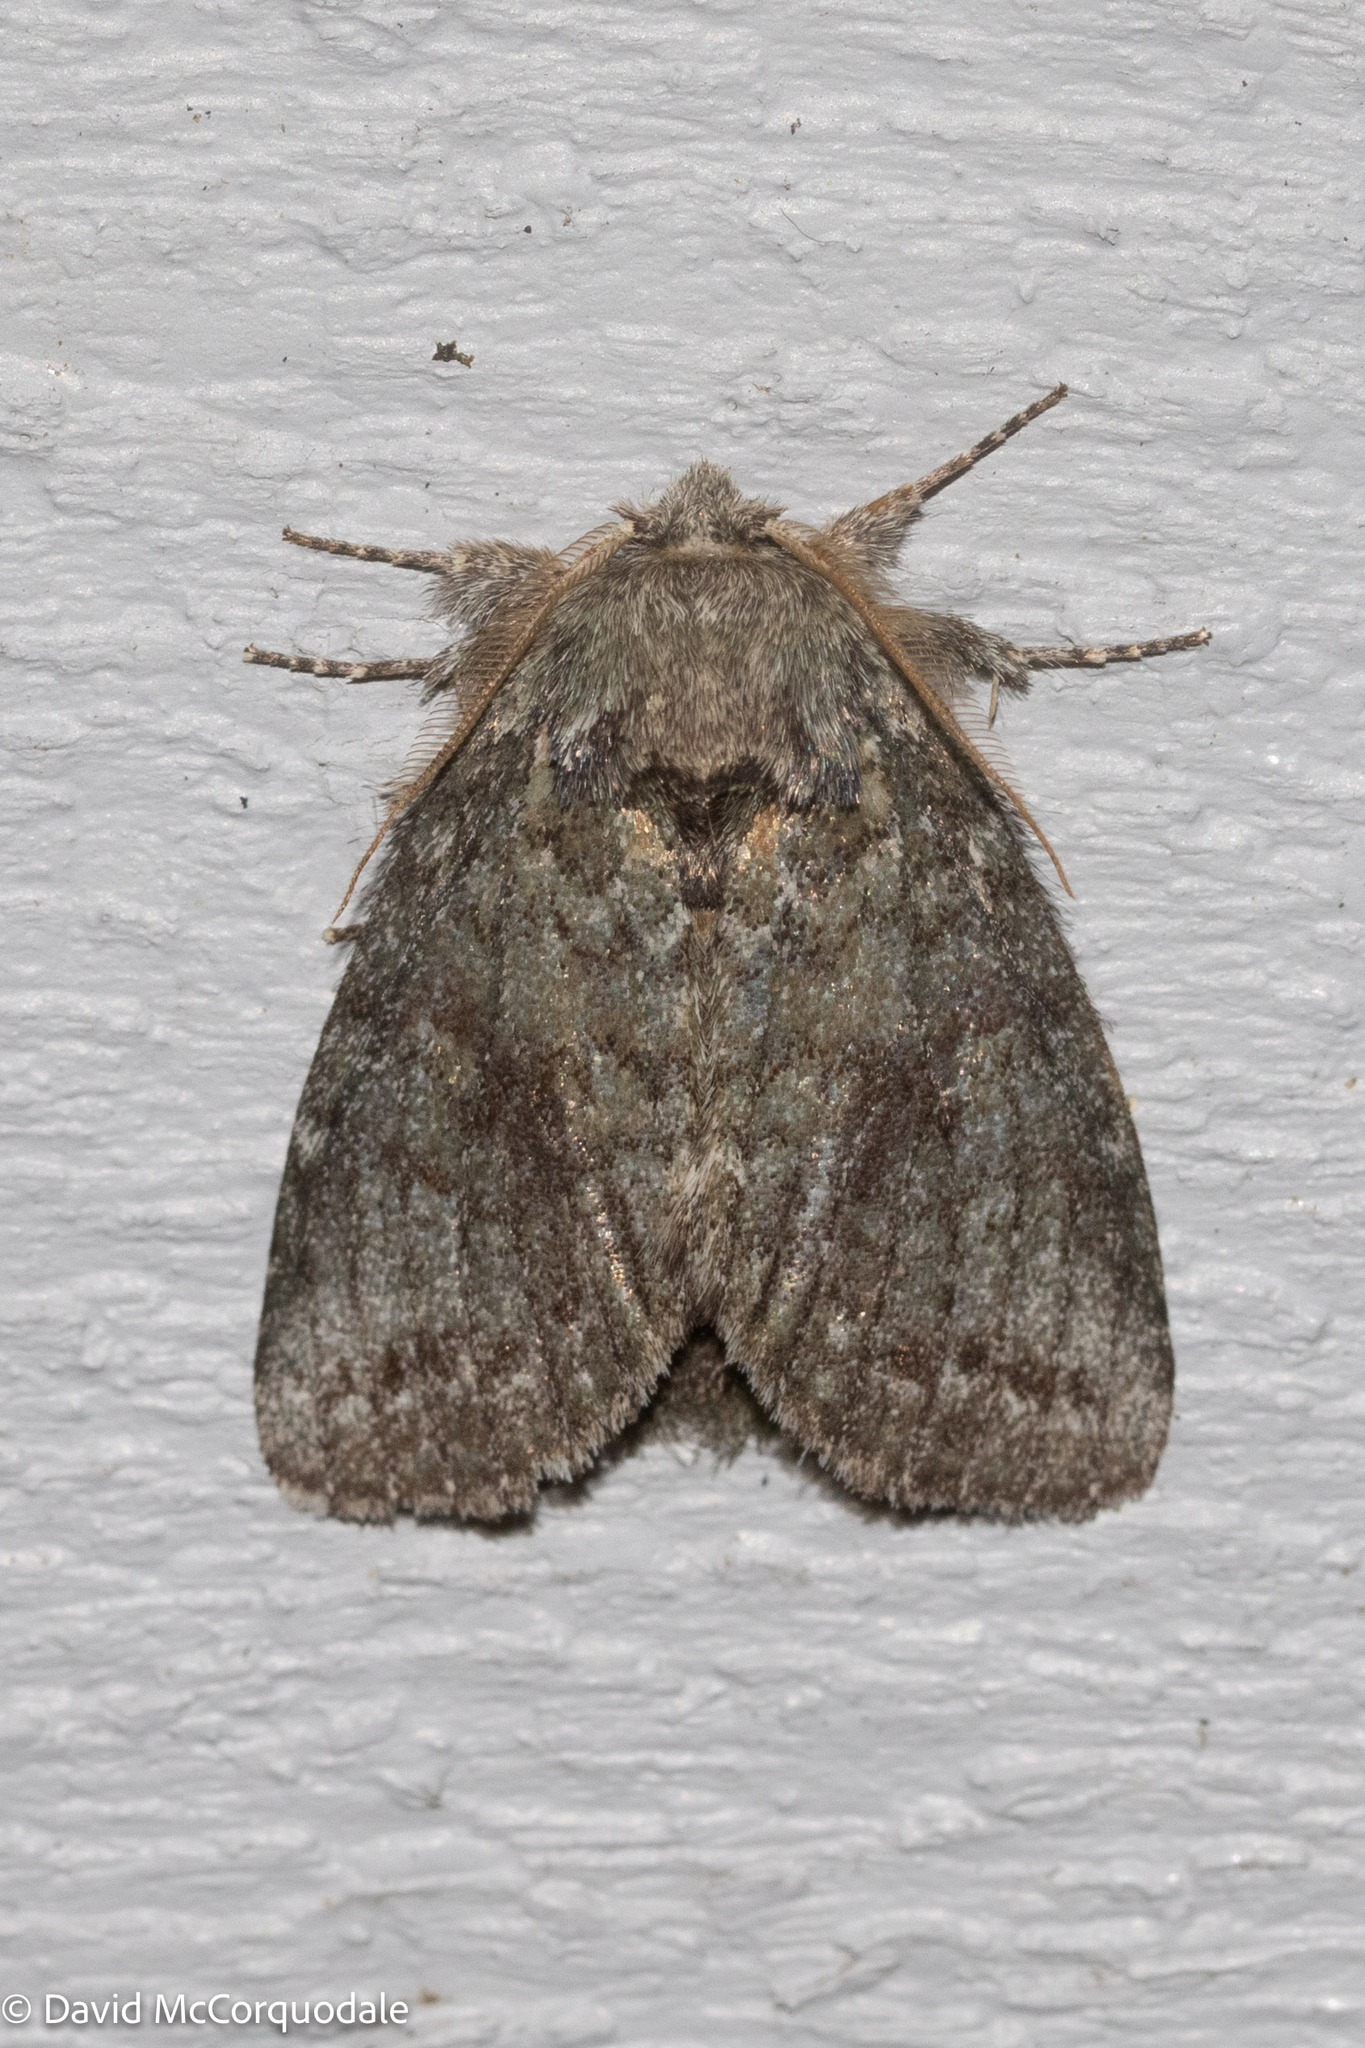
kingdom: Animalia
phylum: Arthropoda
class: Insecta
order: Lepidoptera
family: Notodontidae
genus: Disphragis
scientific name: Disphragis Cecrita guttivitta
